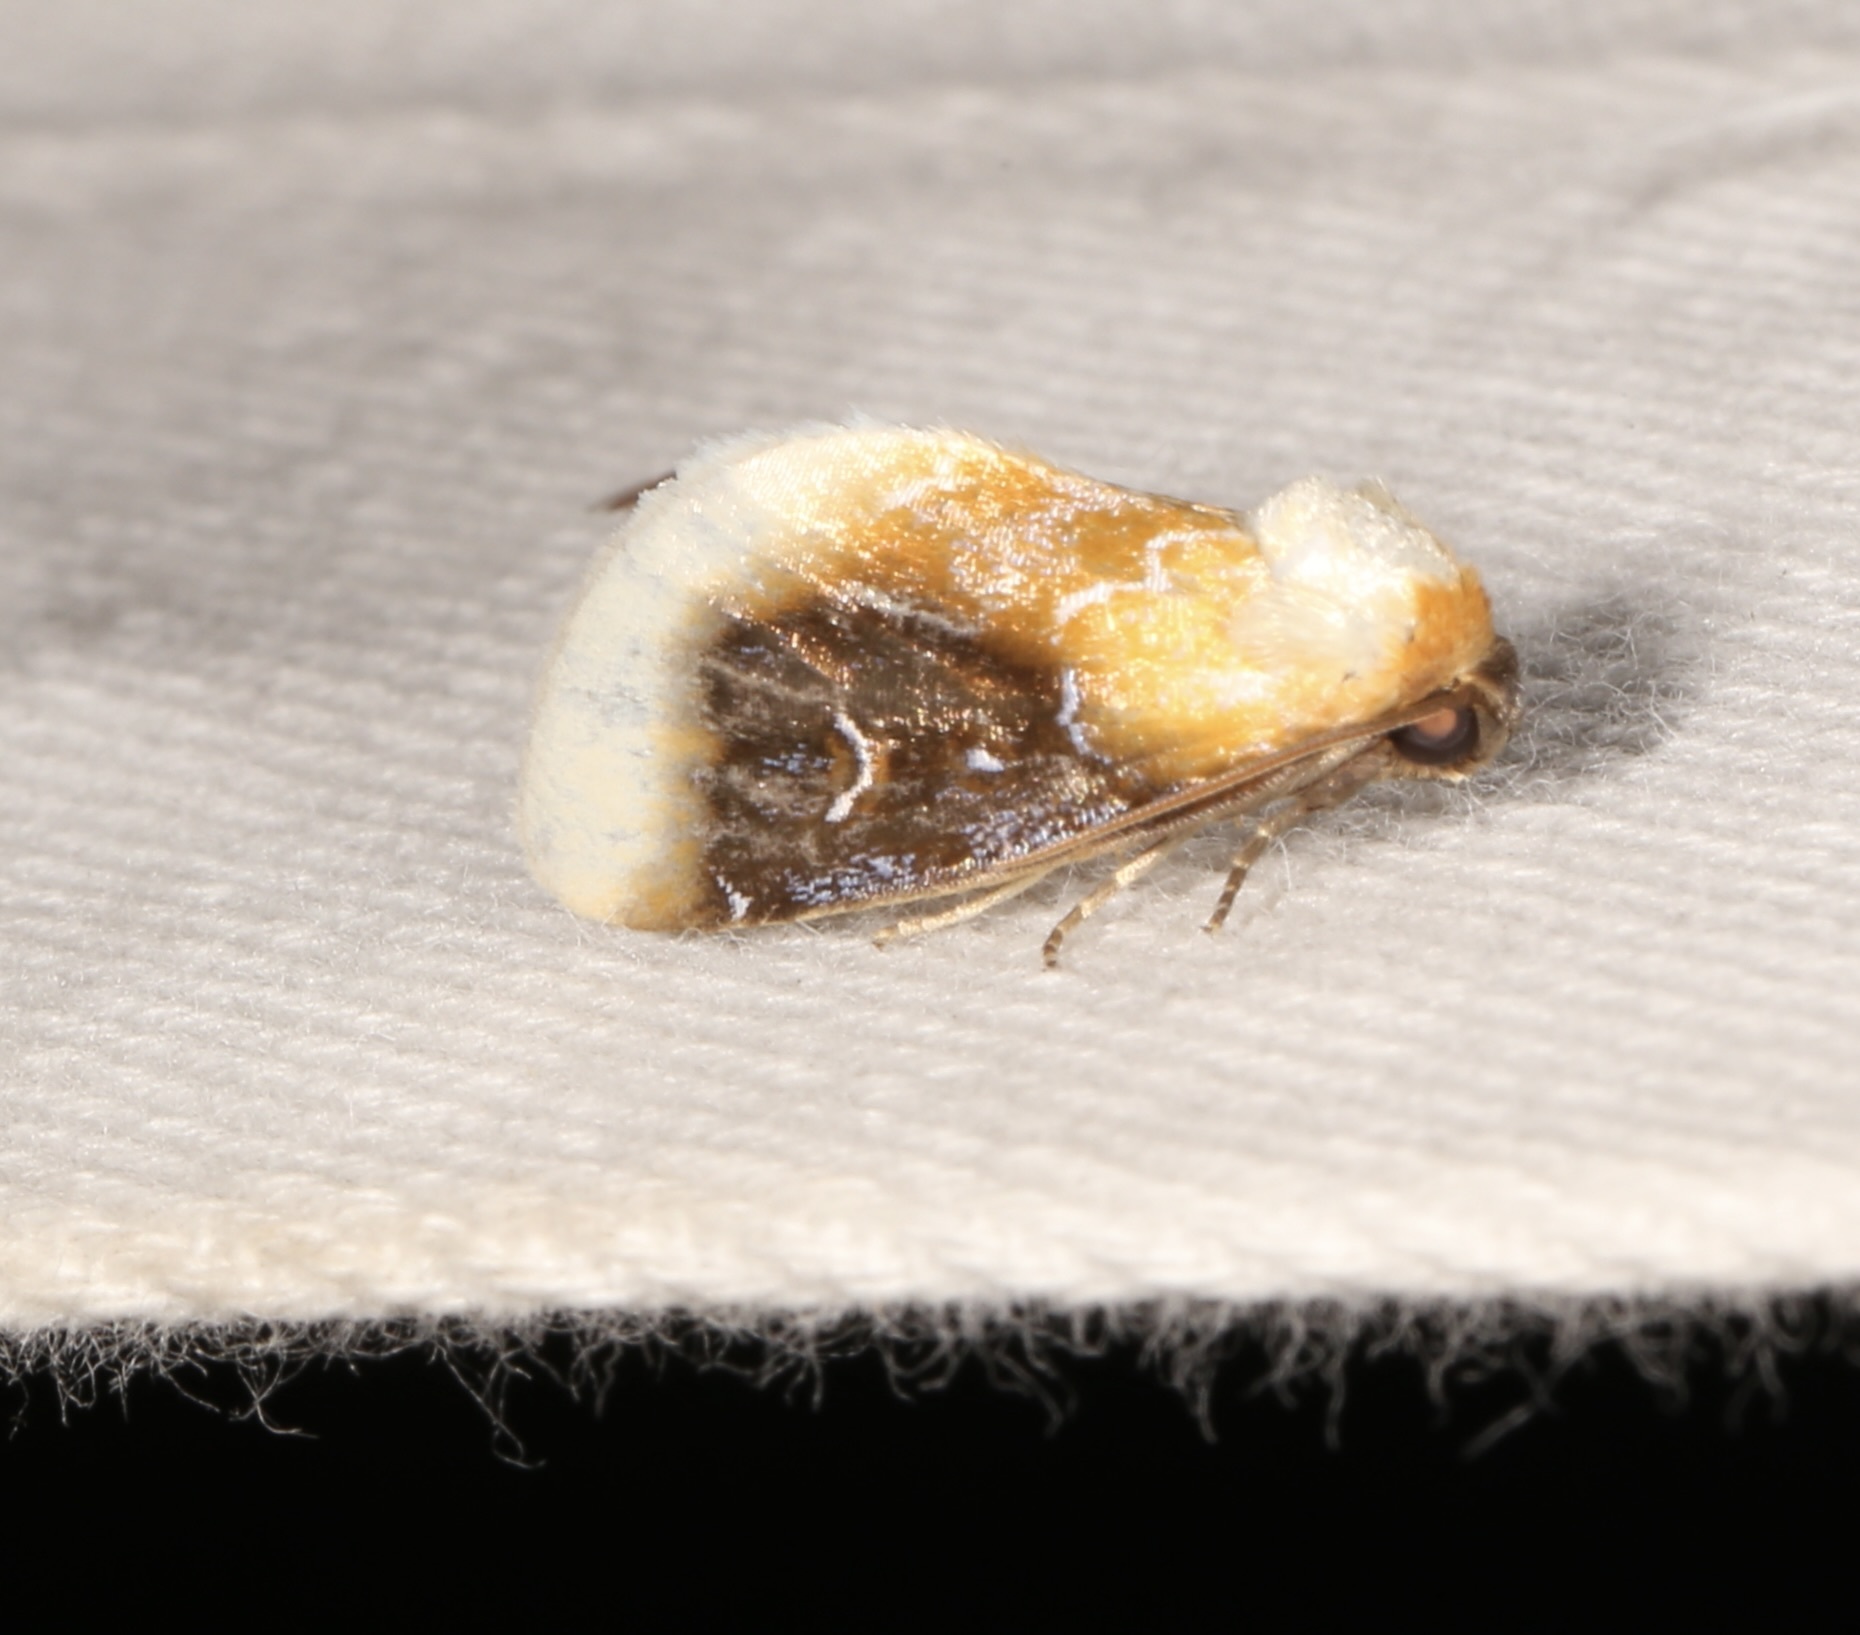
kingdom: Animalia
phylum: Arthropoda
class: Insecta
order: Lepidoptera
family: Noctuidae
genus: Chrysoecia
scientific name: Chrysoecia scira
